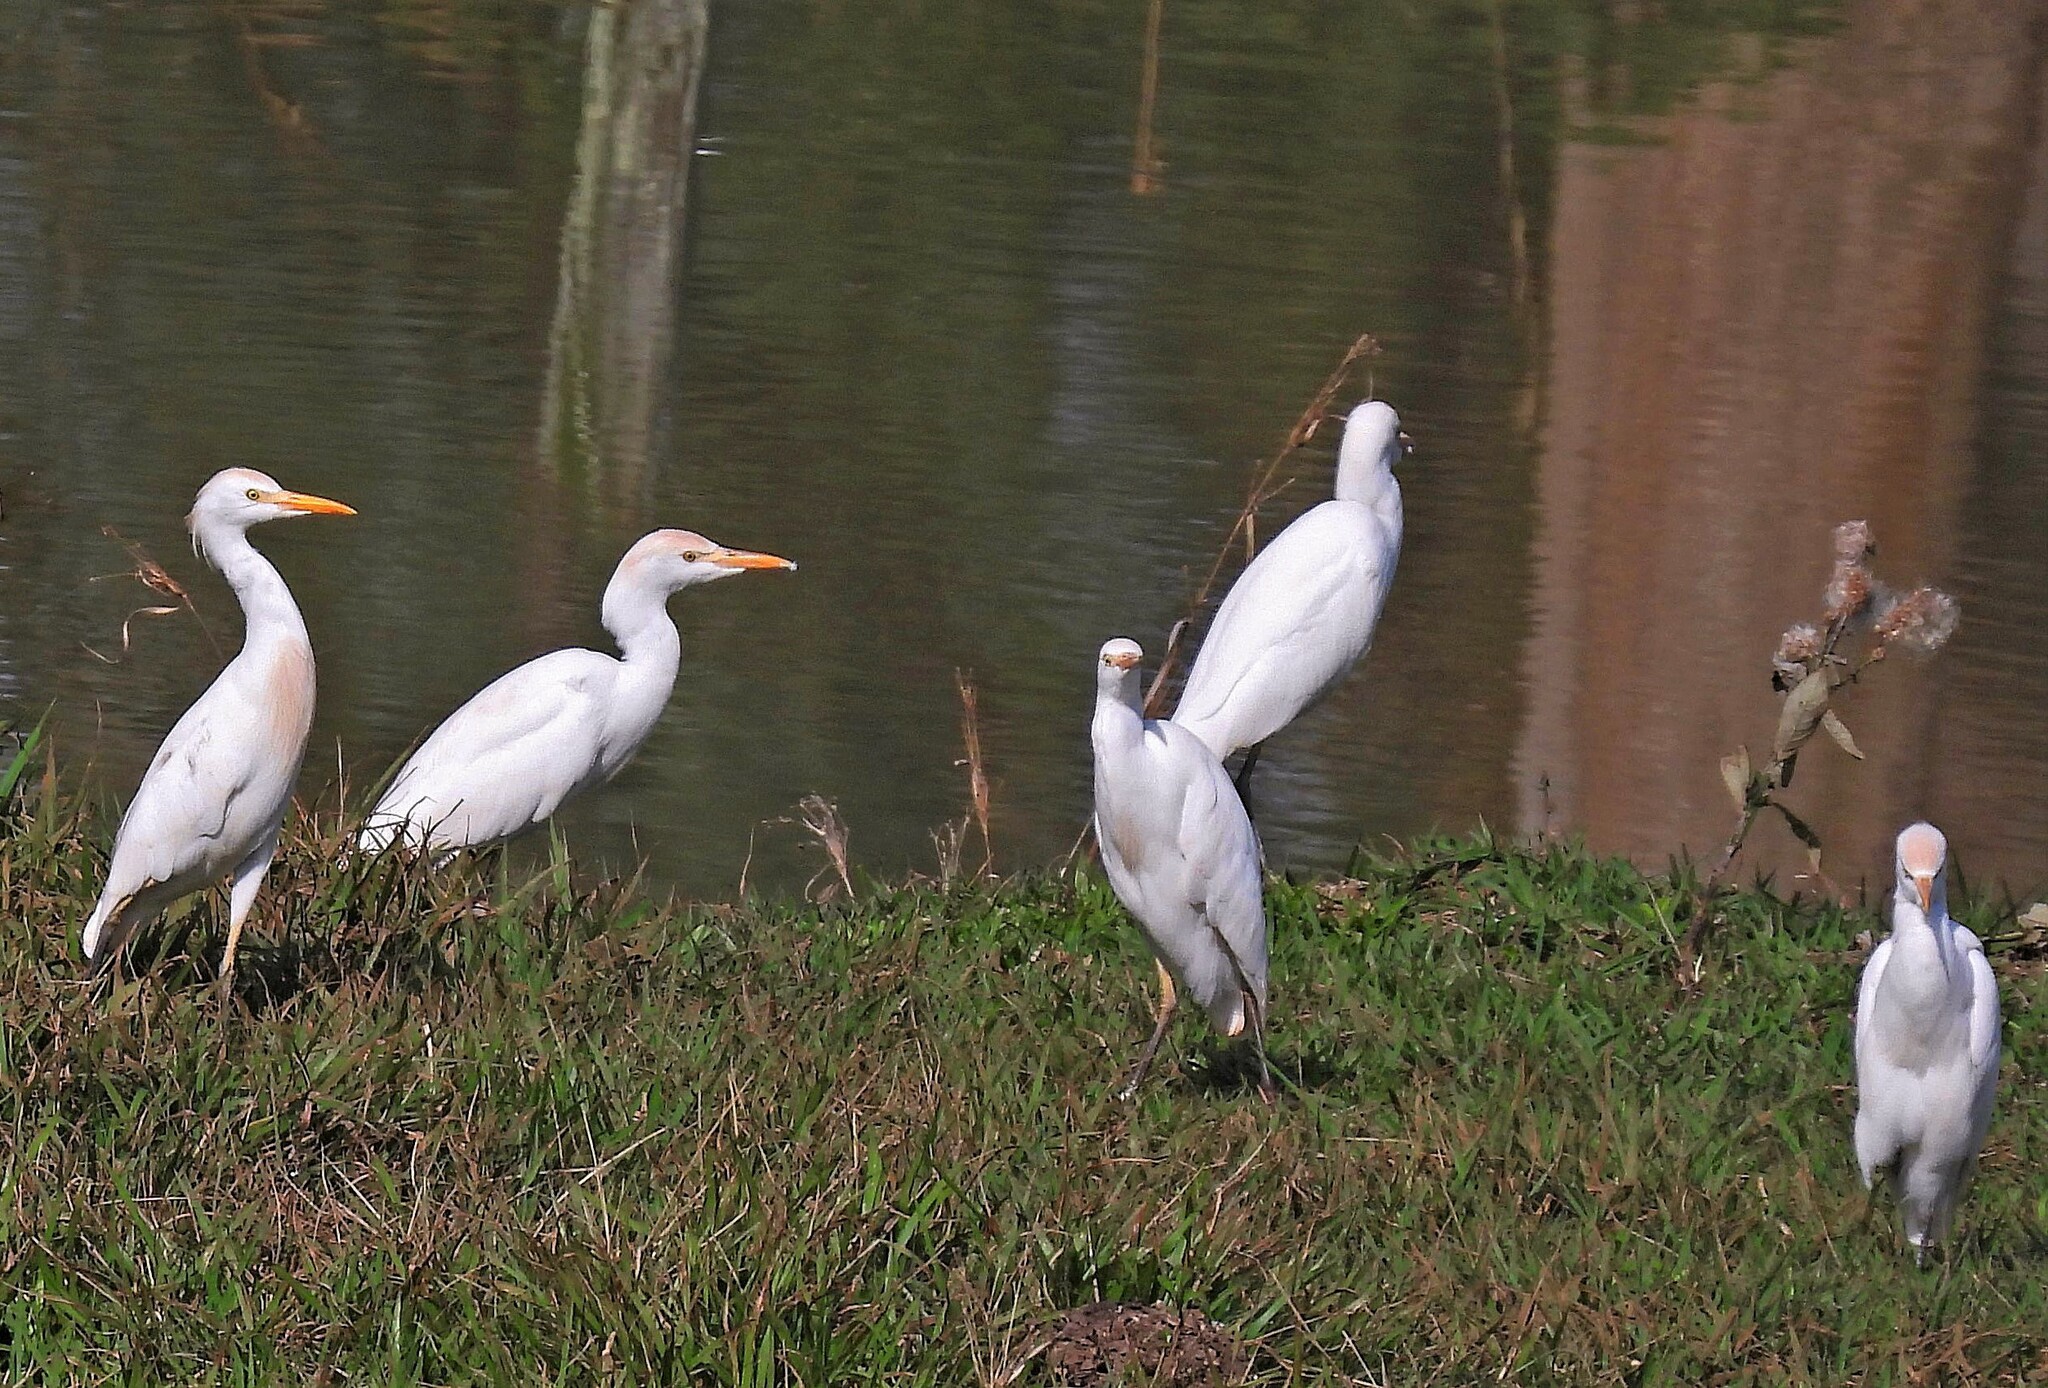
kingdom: Animalia
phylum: Chordata
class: Aves
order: Pelecaniformes
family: Ardeidae
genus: Bubulcus
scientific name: Bubulcus ibis
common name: Cattle egret
